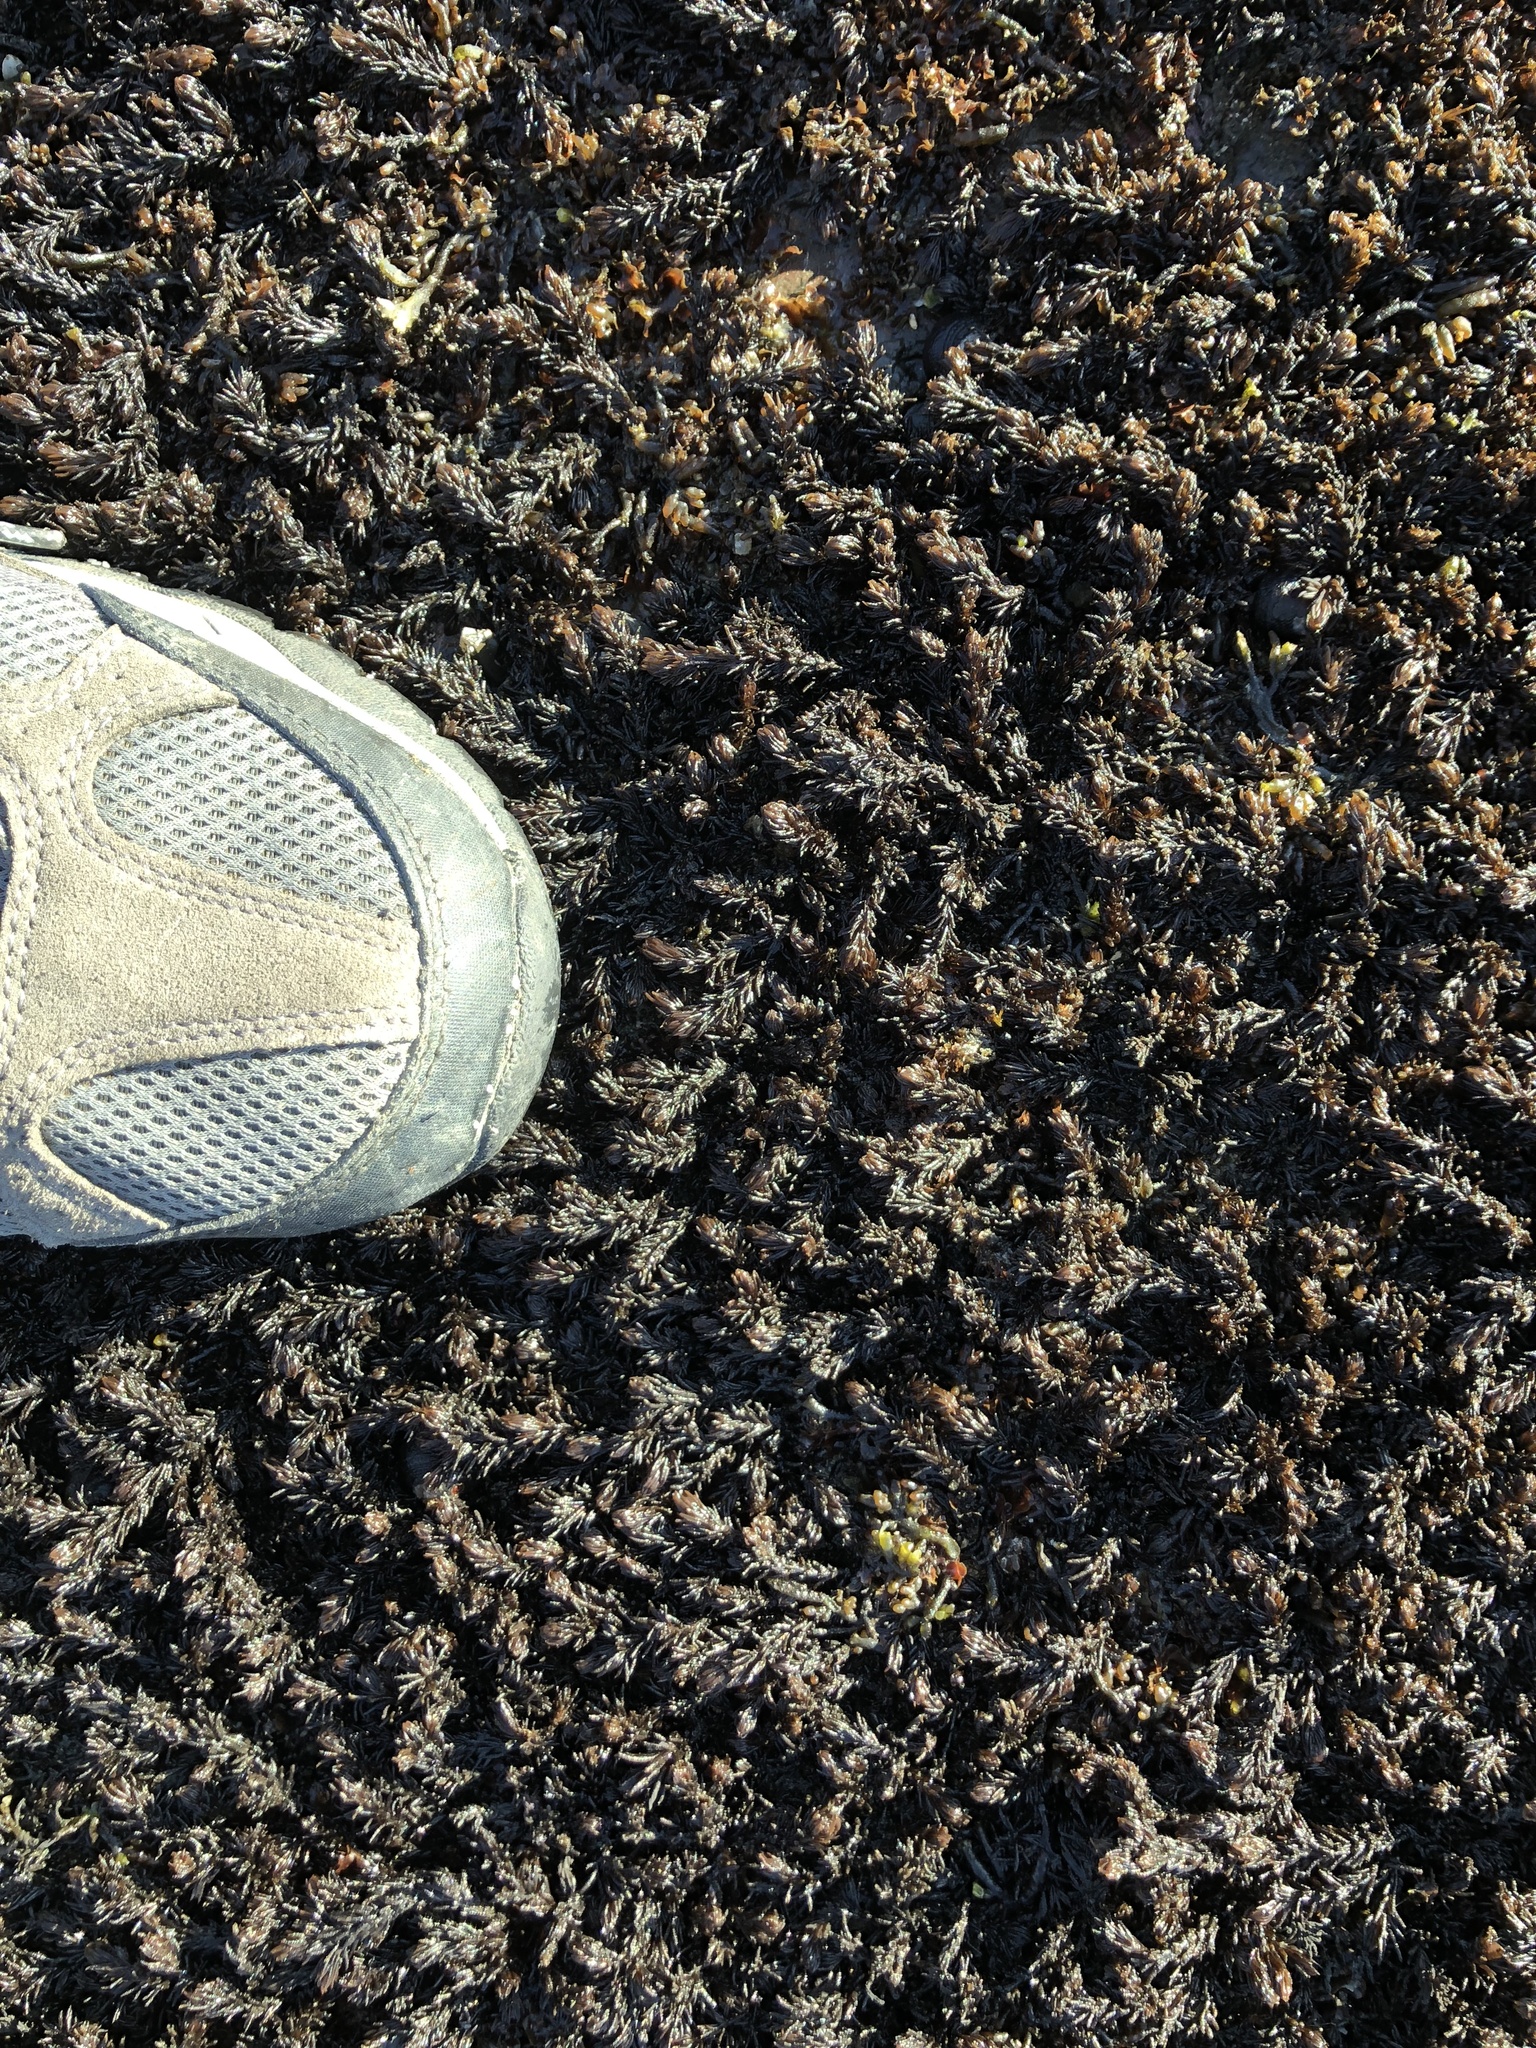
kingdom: Plantae
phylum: Rhodophyta
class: Florideophyceae
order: Ceramiales
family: Rhodomelaceae
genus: Neorhodomela
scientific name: Neorhodomela larix
